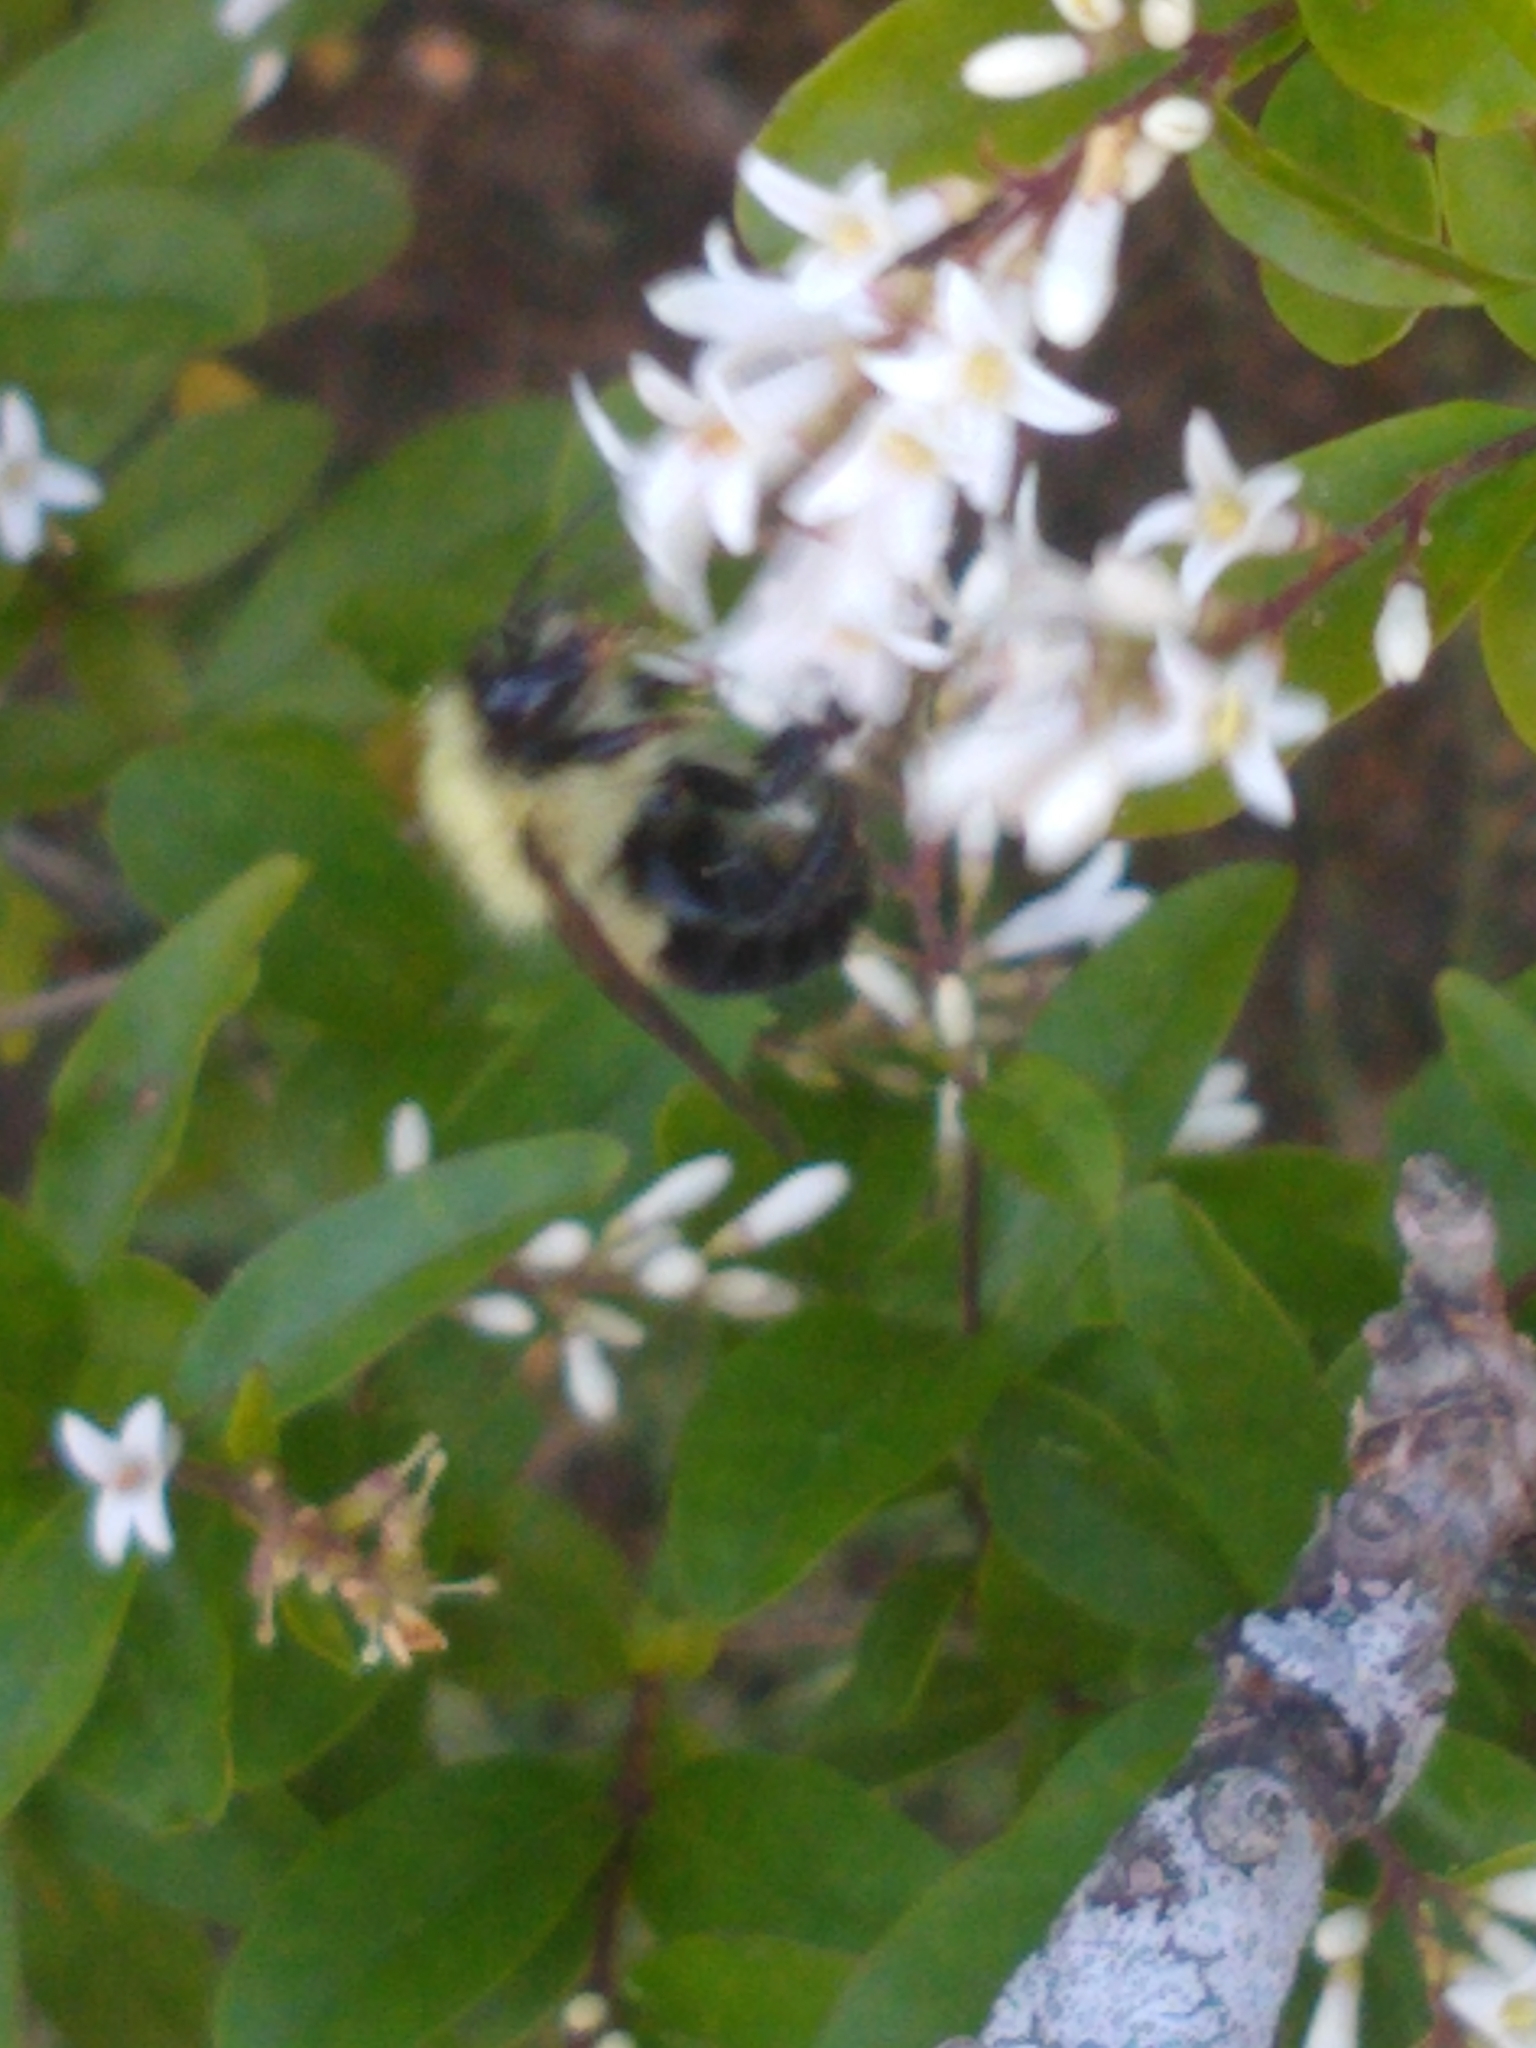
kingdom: Animalia
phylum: Arthropoda
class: Insecta
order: Hymenoptera
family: Apidae
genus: Bombus
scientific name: Bombus bimaculatus
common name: Two-spotted bumble bee
